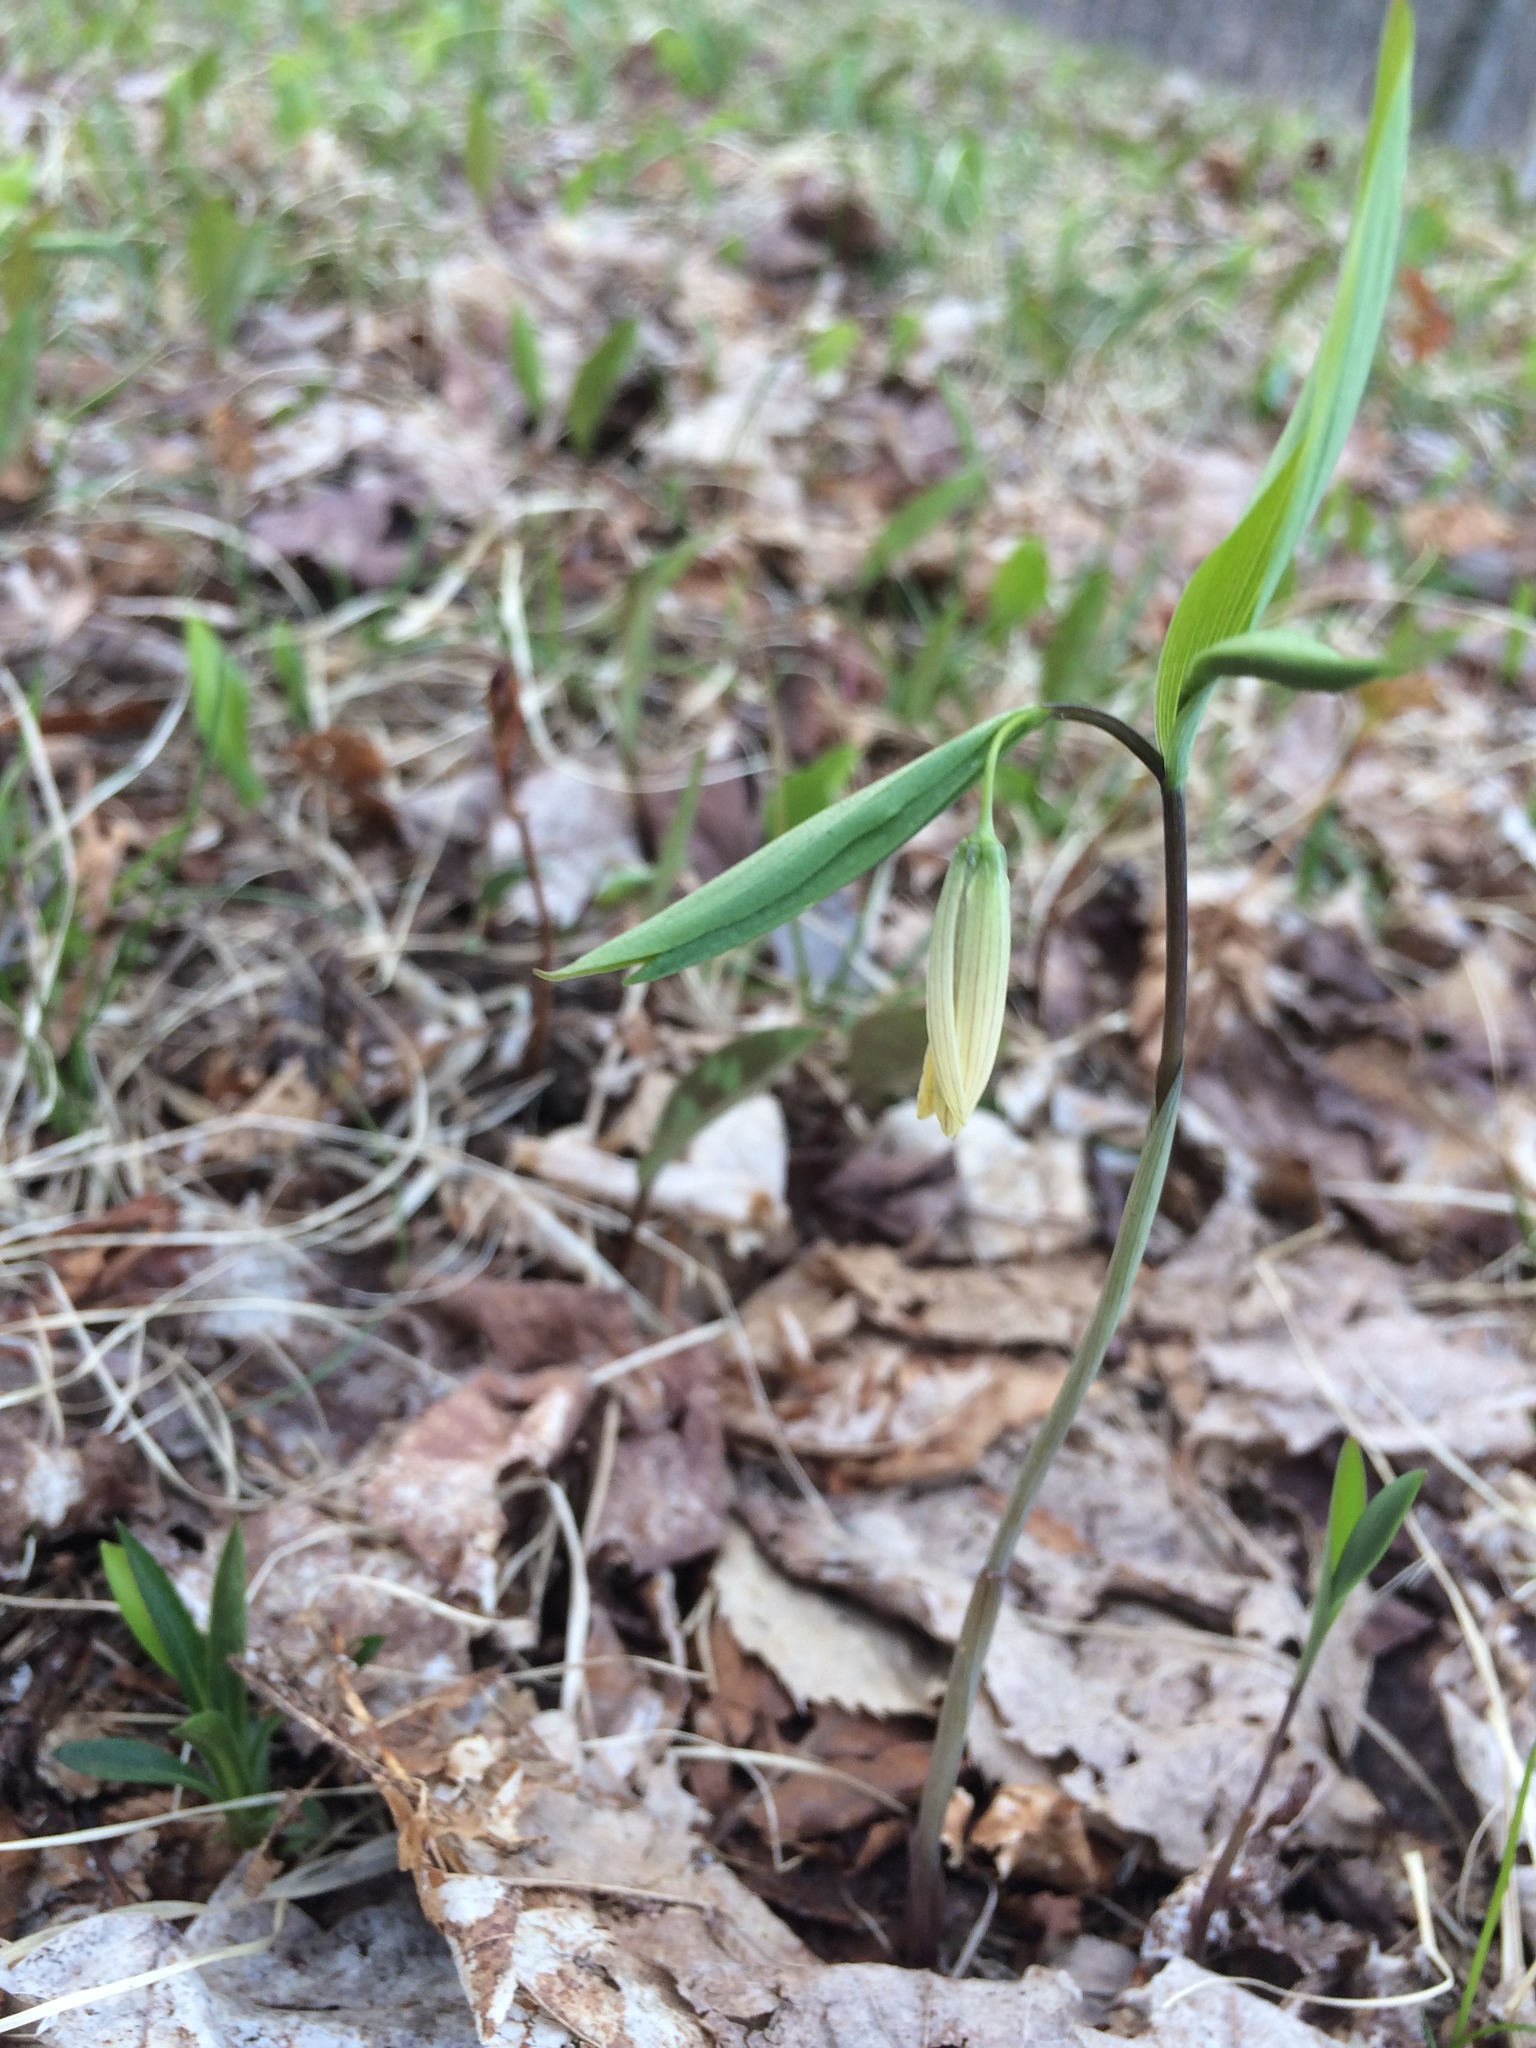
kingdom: Plantae
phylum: Tracheophyta
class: Liliopsida
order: Liliales
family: Colchicaceae
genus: Uvularia
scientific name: Uvularia sessilifolia
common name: Straw-lily
